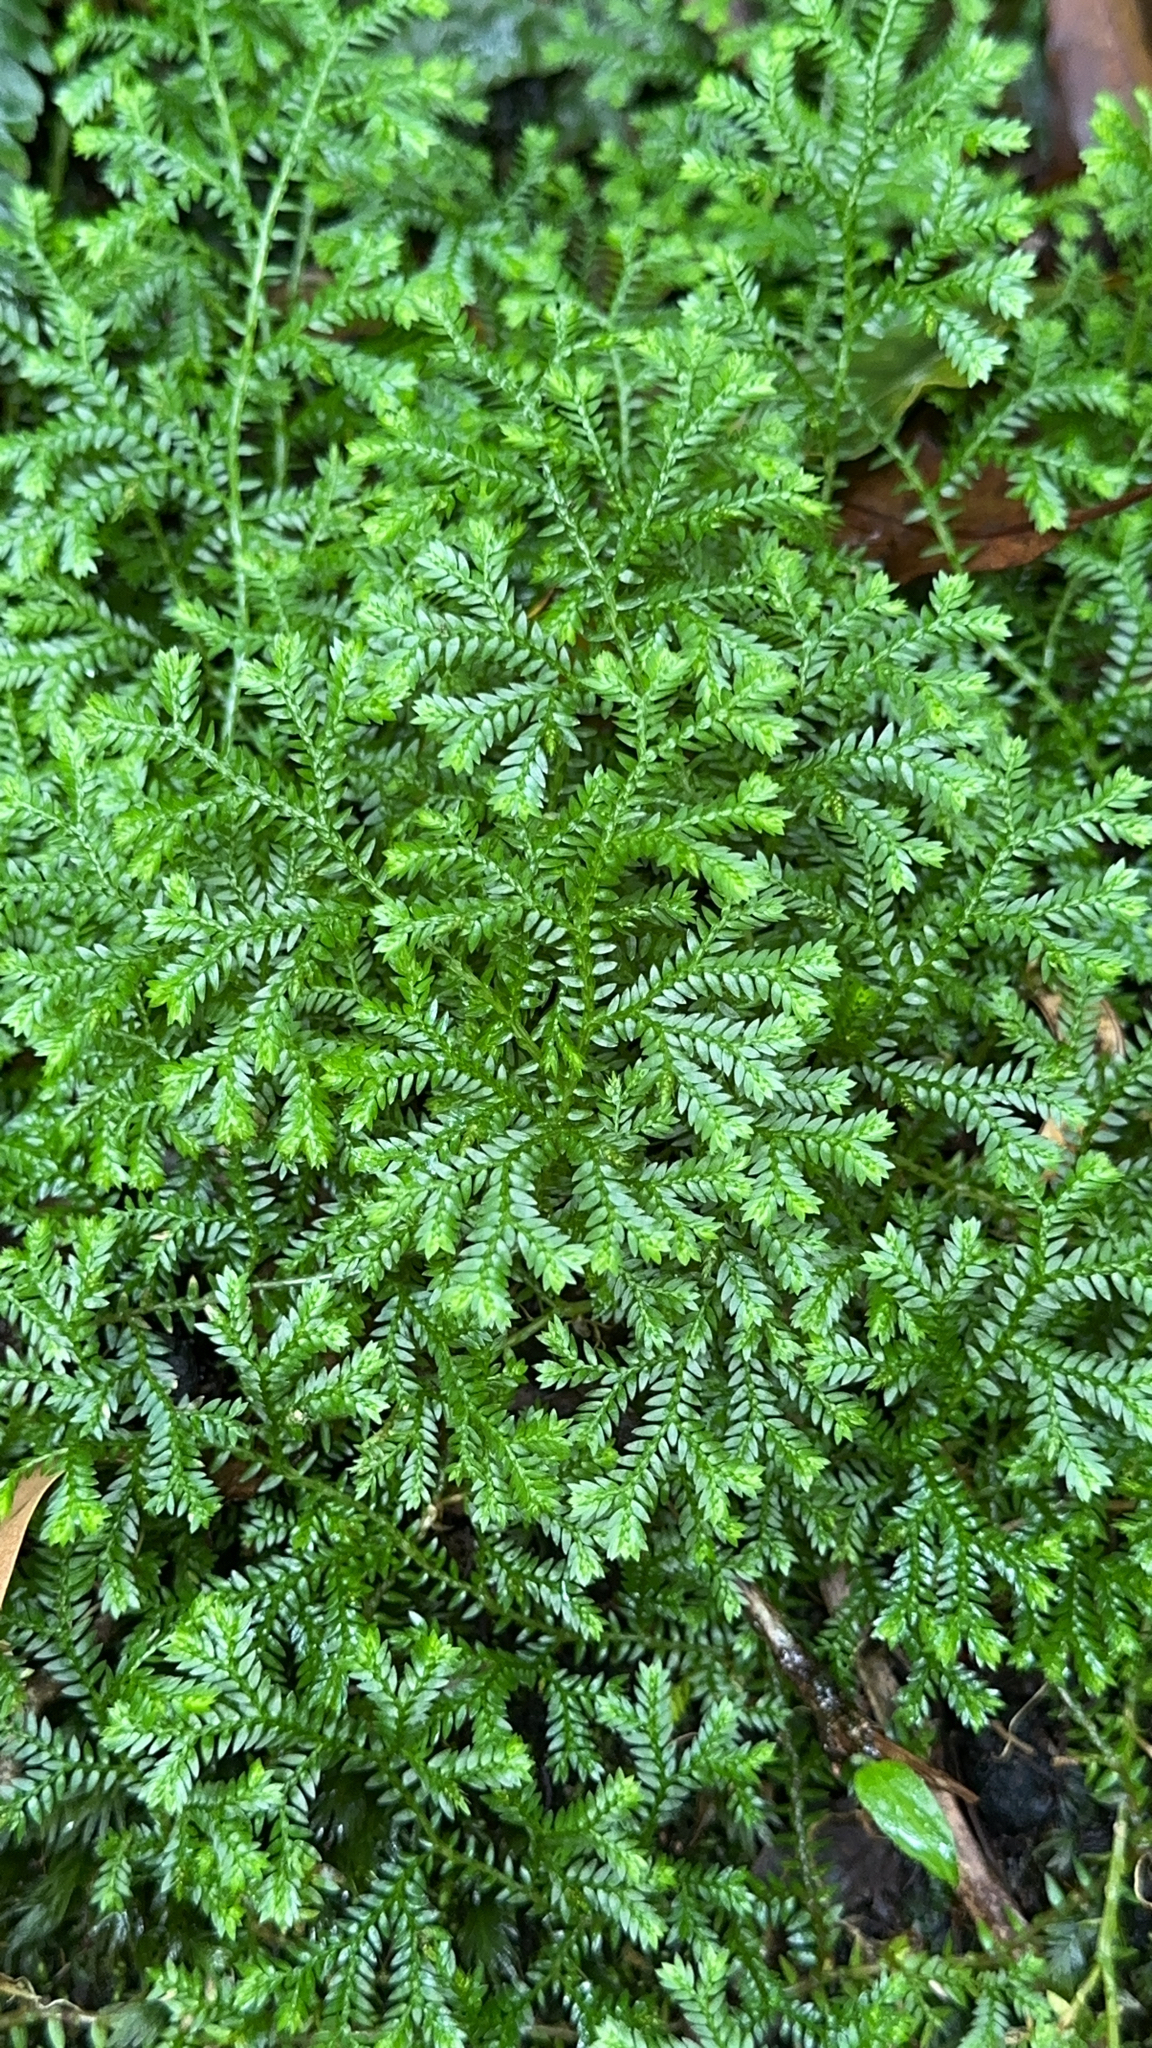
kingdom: Plantae
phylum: Tracheophyta
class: Lycopodiopsida
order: Selaginellales
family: Selaginellaceae
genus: Selaginella
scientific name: Selaginella kraussiana
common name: Krauss' spikemoss
